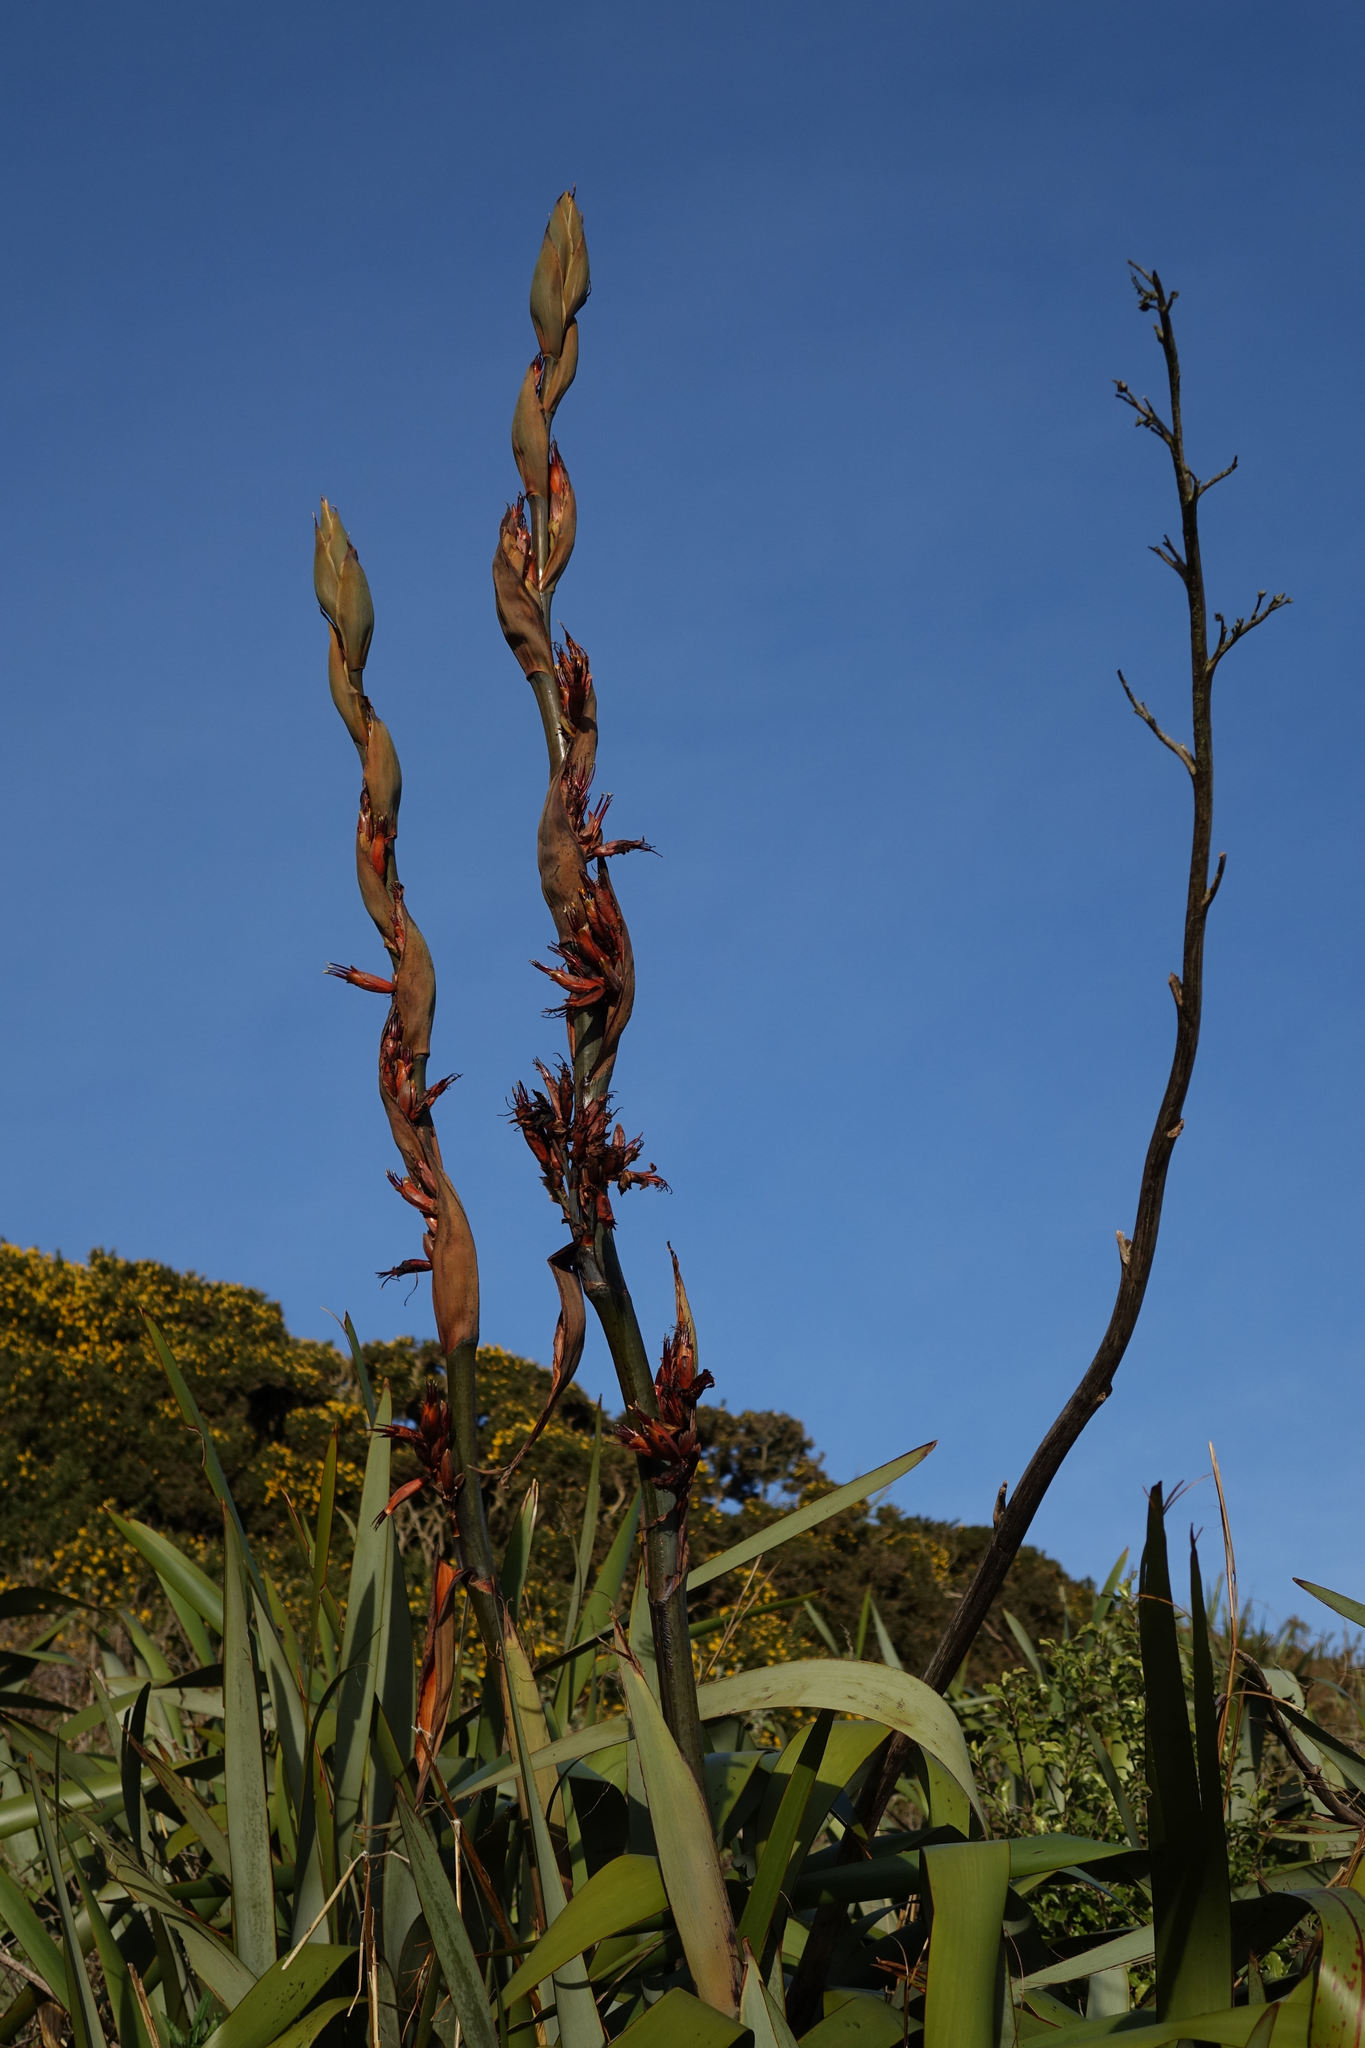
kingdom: Plantae
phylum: Tracheophyta
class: Liliopsida
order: Asparagales
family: Asphodelaceae
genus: Phormium
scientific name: Phormium tenax
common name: New zealand flax
